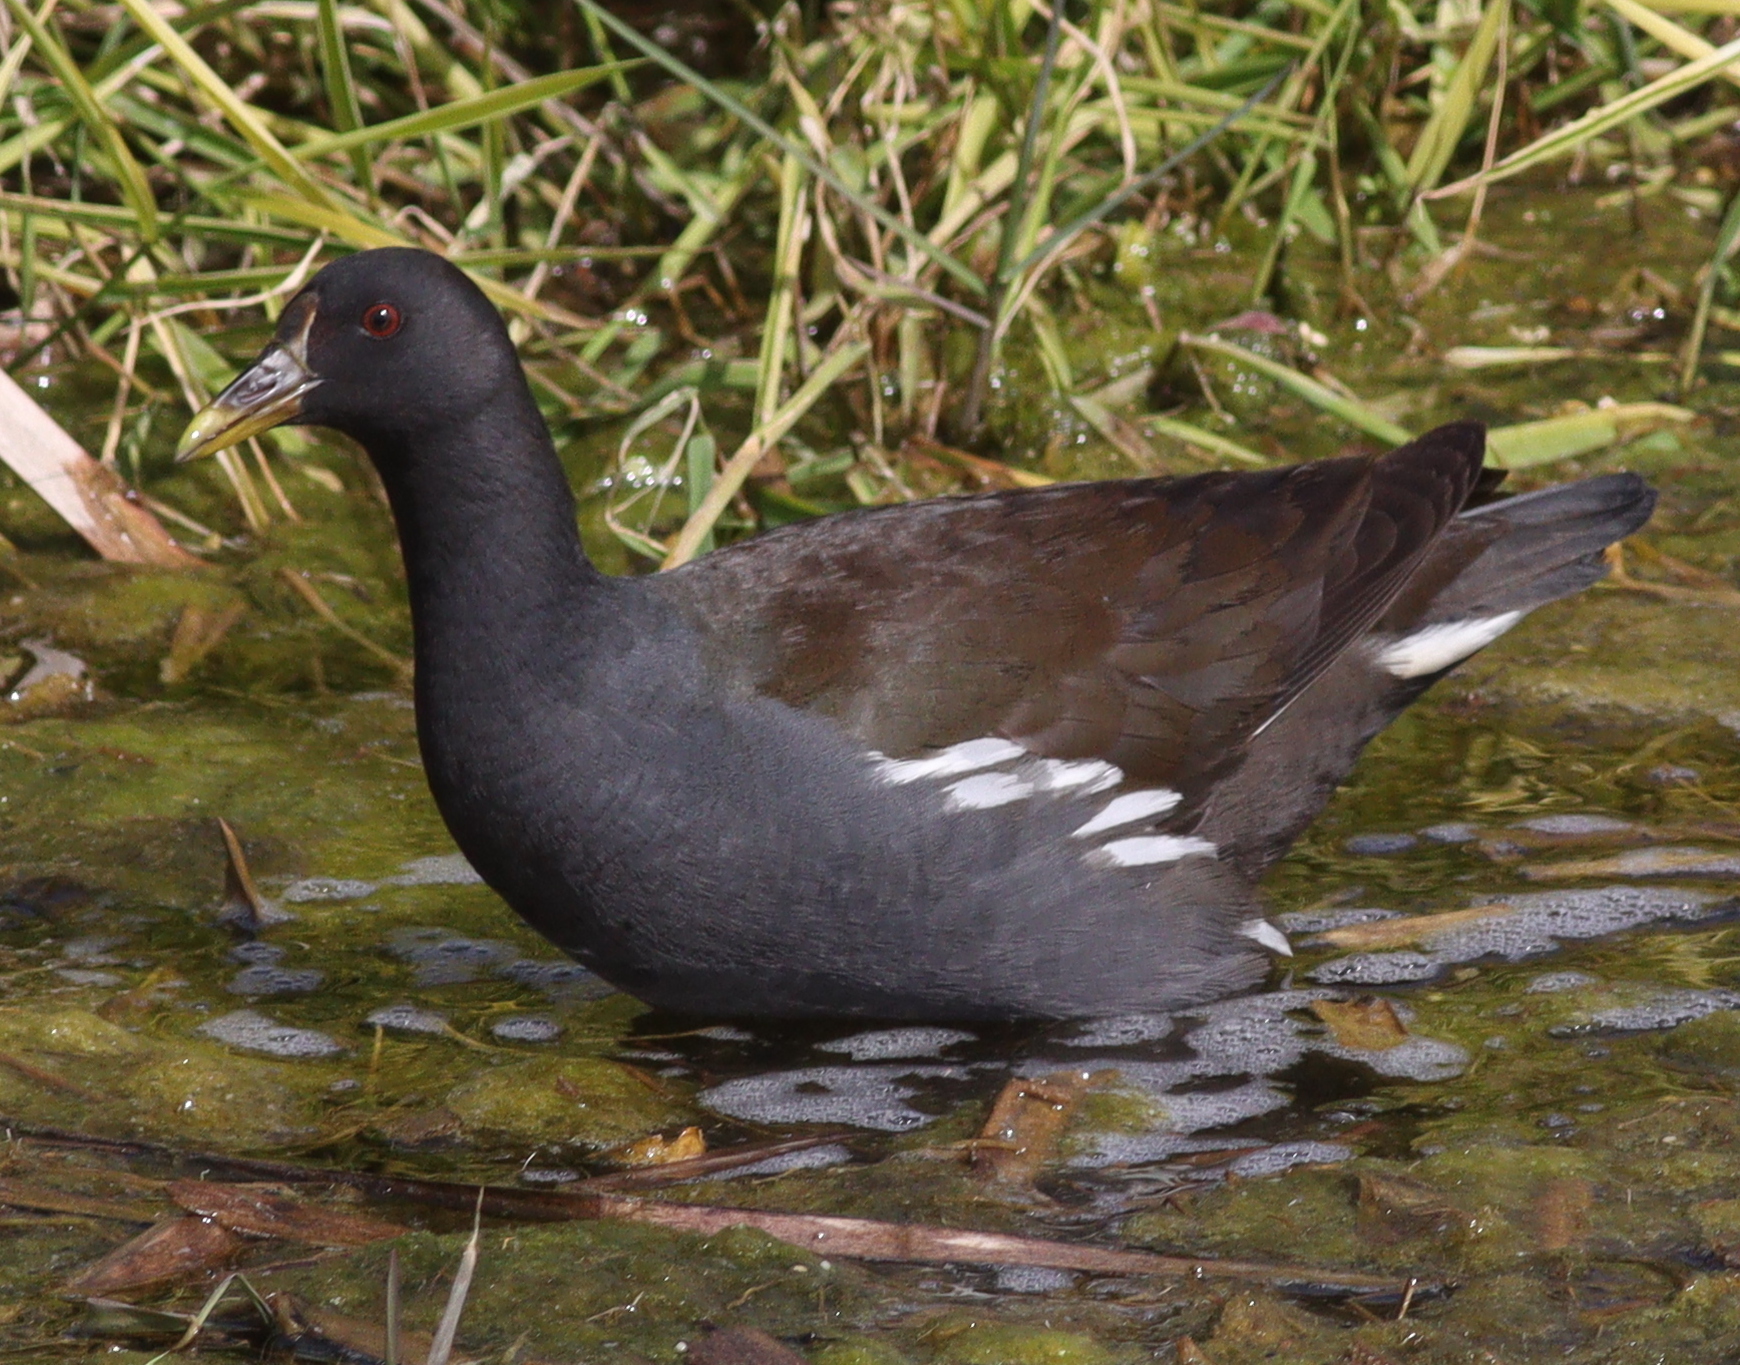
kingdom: Animalia
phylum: Chordata
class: Aves
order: Gruiformes
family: Rallidae
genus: Gallinula
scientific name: Gallinula chloropus
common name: Common moorhen
